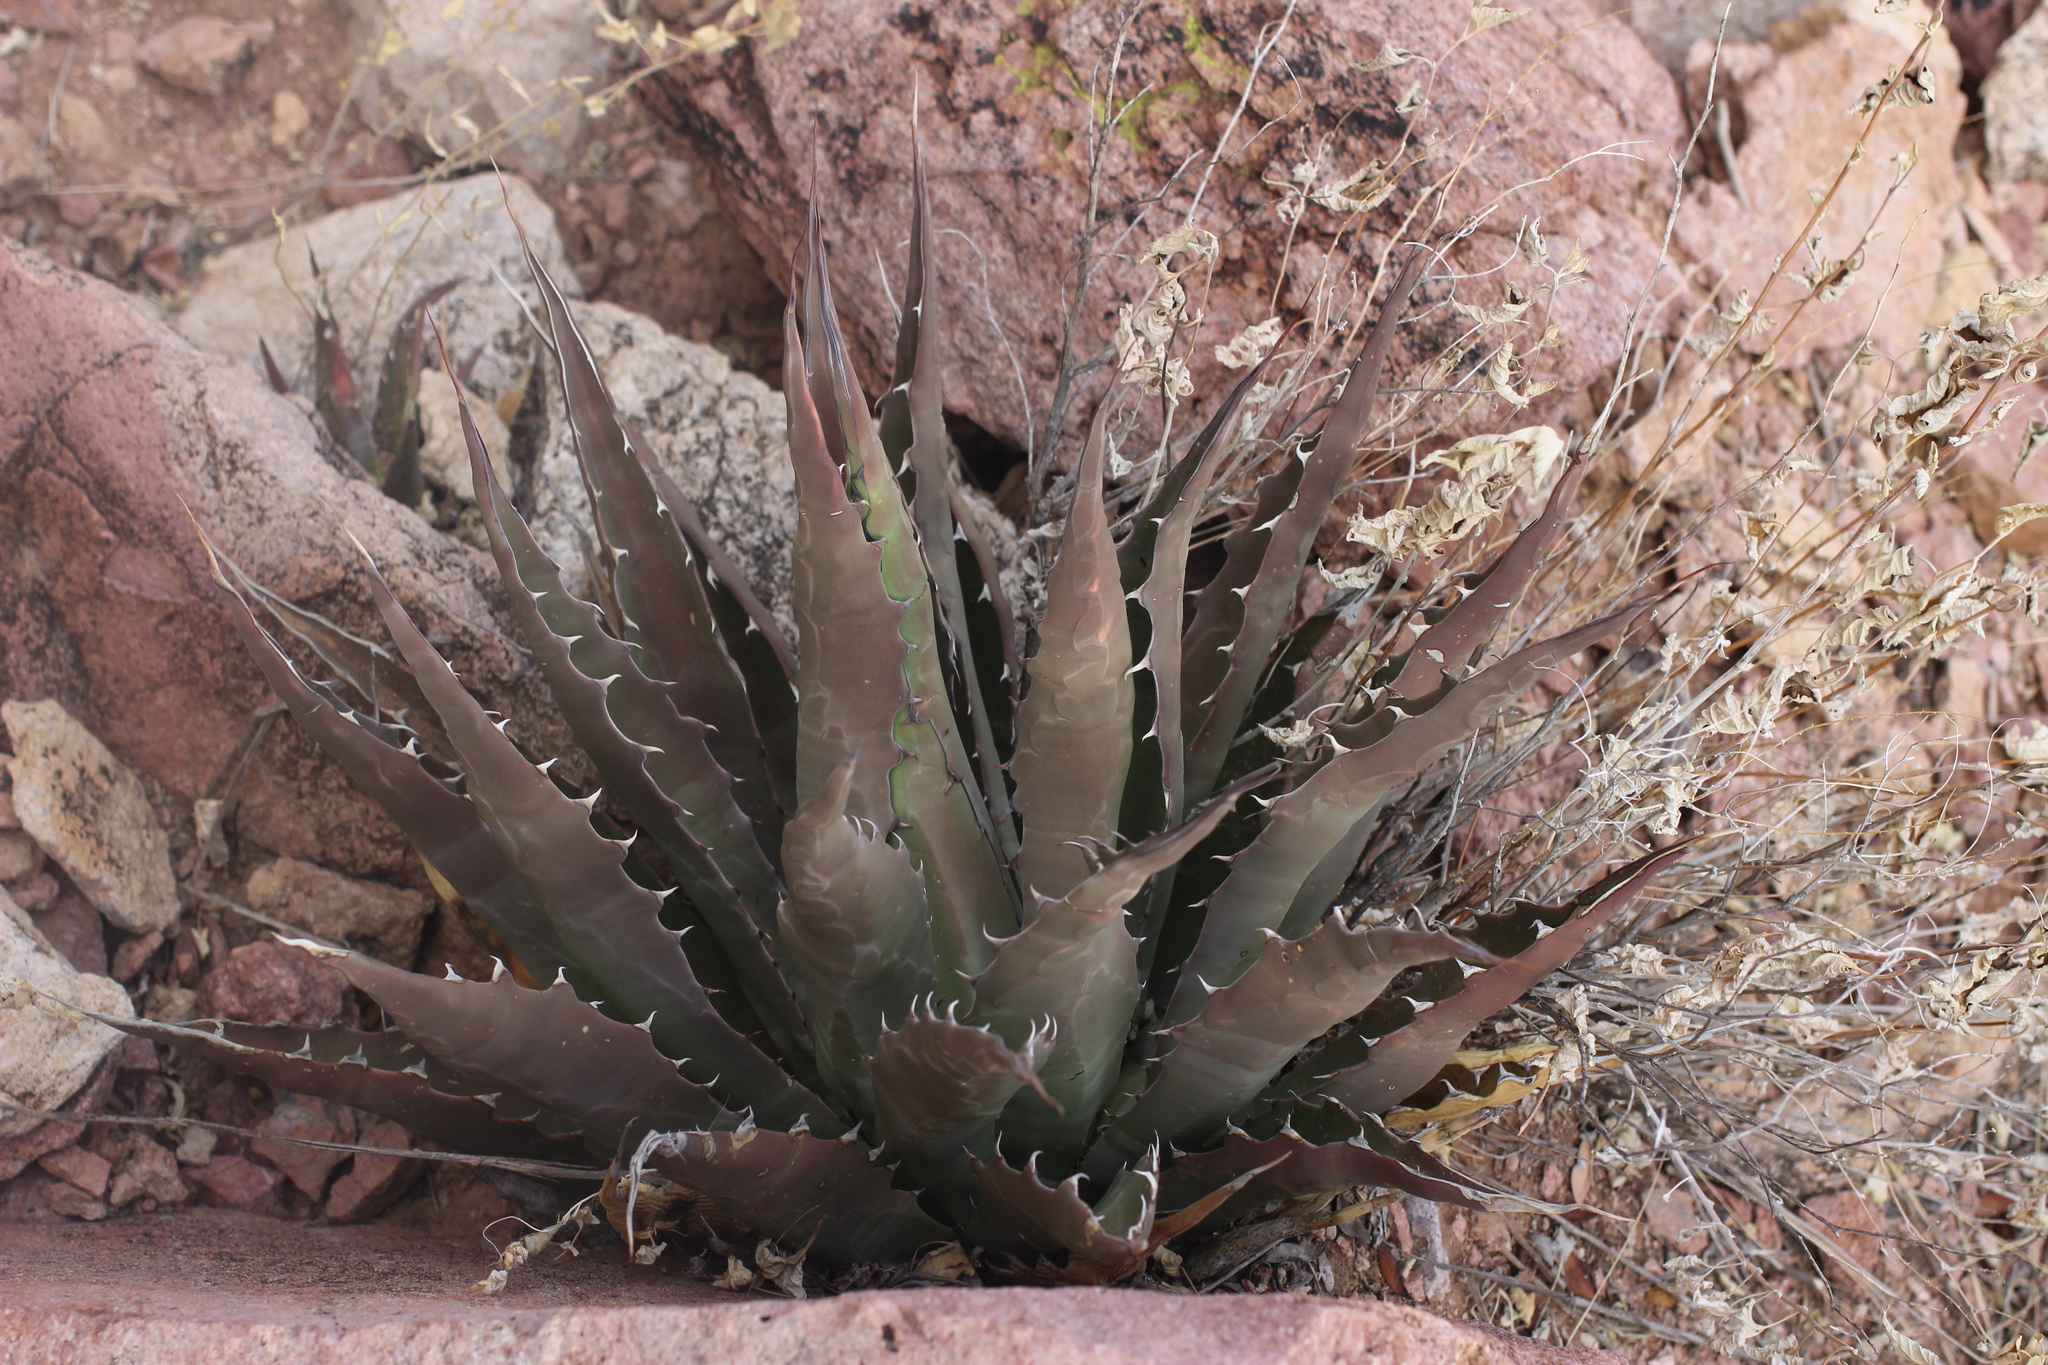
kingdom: Plantae
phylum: Tracheophyta
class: Liliopsida
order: Asparagales
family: Asparagaceae
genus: Agave
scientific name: Agave simplex
